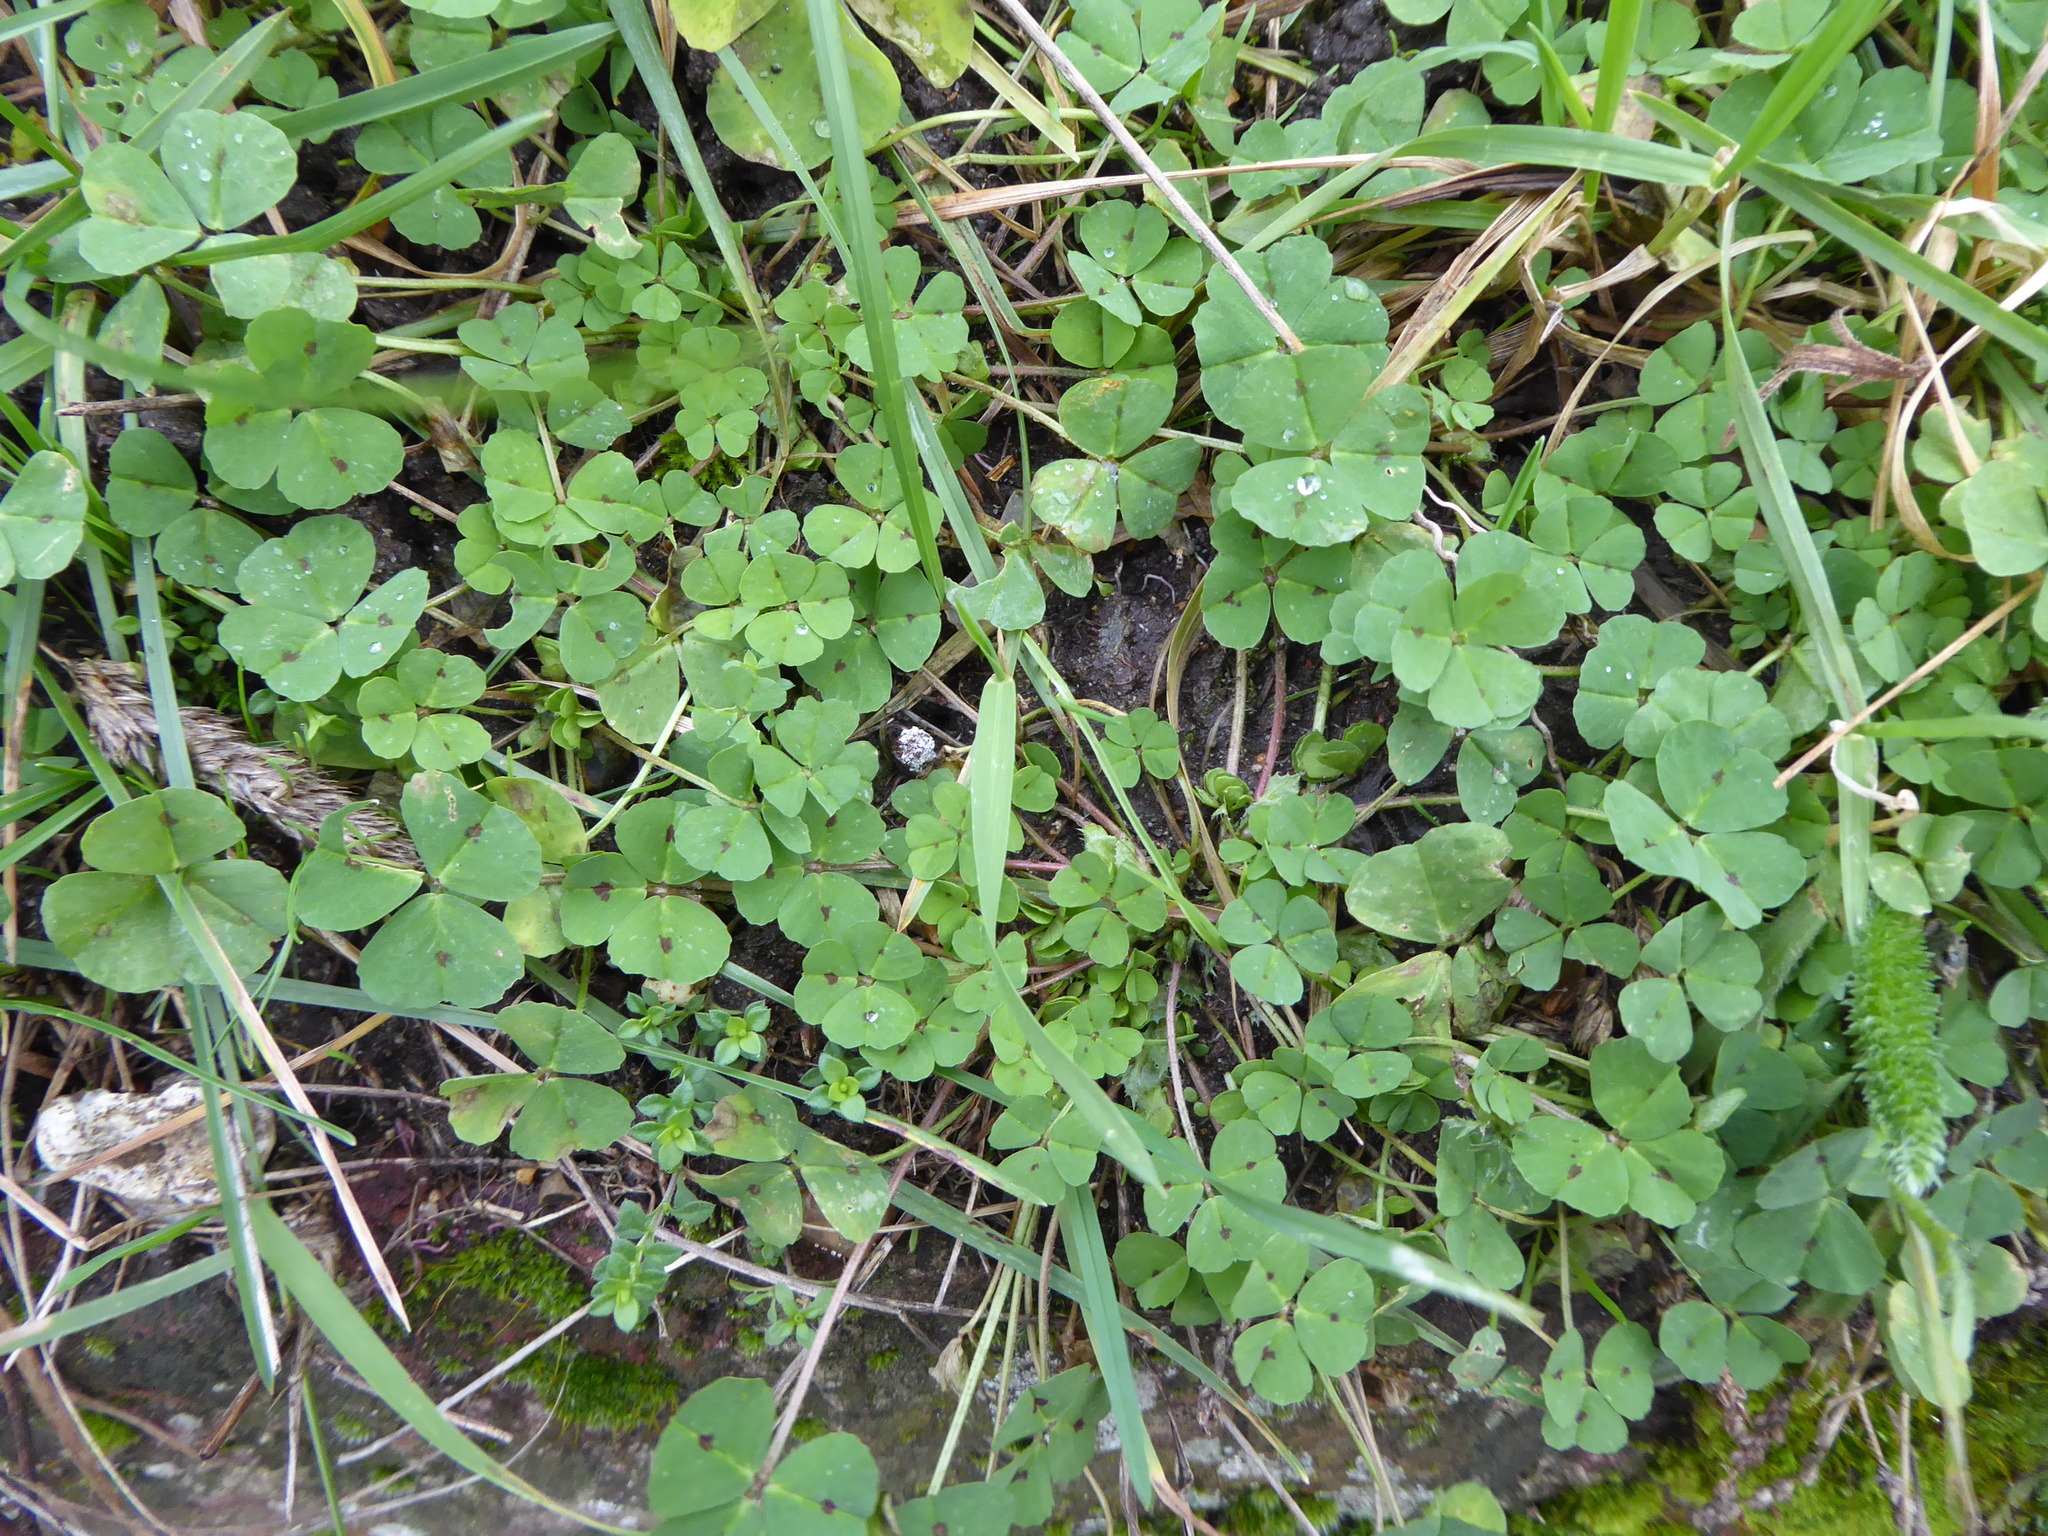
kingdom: Plantae
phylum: Tracheophyta
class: Magnoliopsida
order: Fabales
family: Fabaceae
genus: Medicago
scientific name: Medicago arabica
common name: Spotted medick
